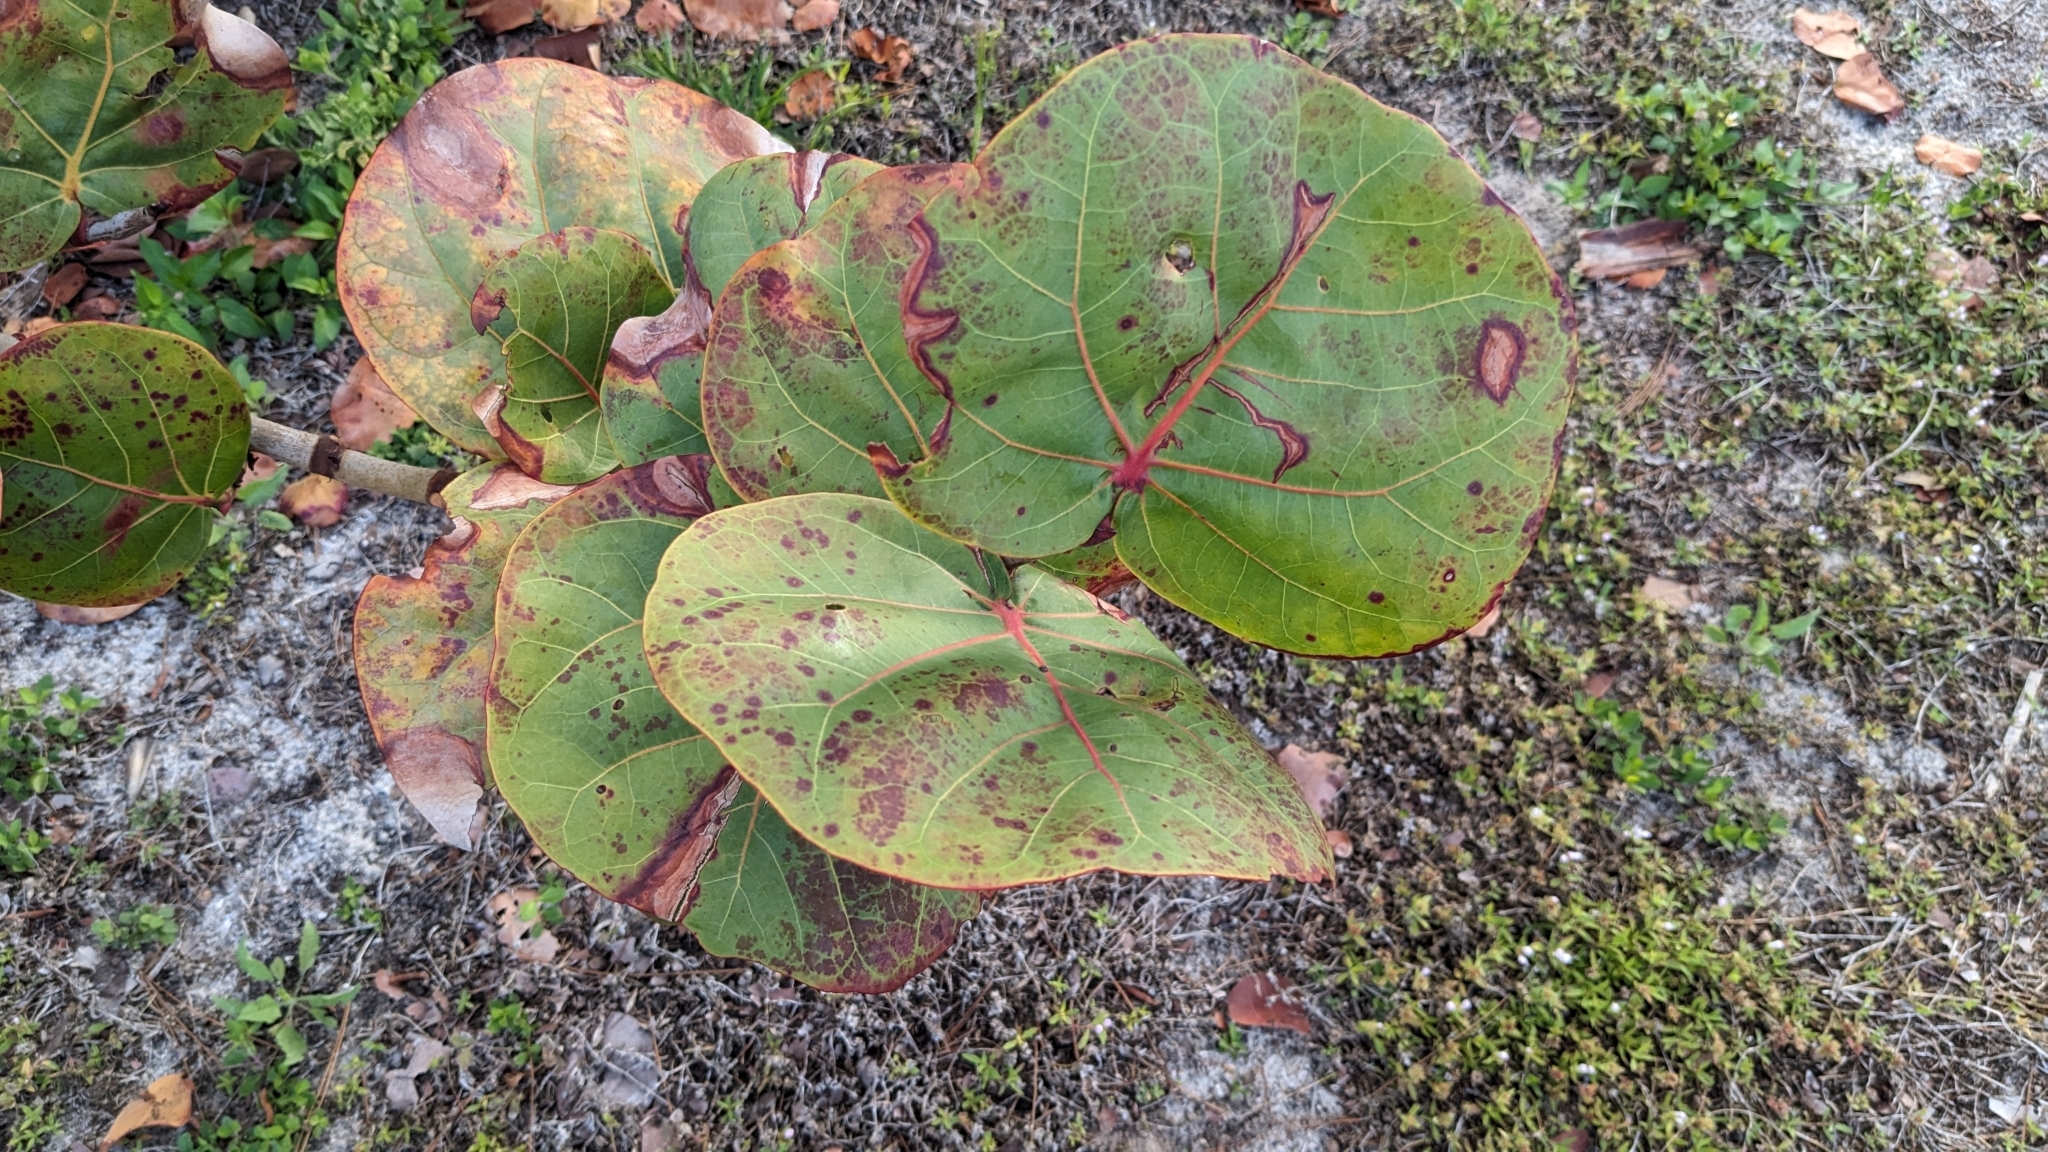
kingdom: Plantae
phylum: Tracheophyta
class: Magnoliopsida
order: Caryophyllales
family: Polygonaceae
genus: Coccoloba
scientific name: Coccoloba uvifera
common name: Seagrape
